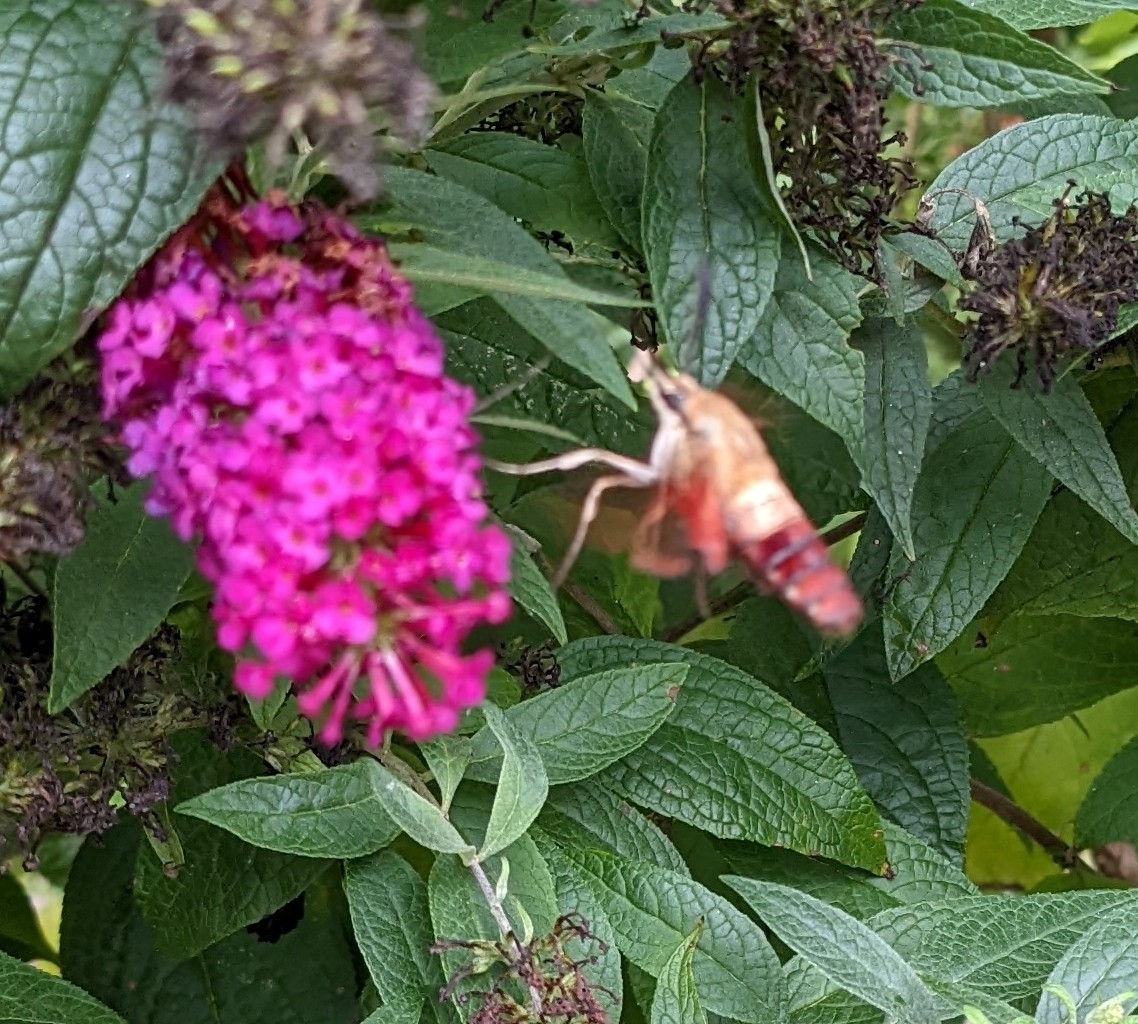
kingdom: Animalia
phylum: Arthropoda
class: Insecta
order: Lepidoptera
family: Sphingidae
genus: Hemaris
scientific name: Hemaris thysbe
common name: Common clear-wing
